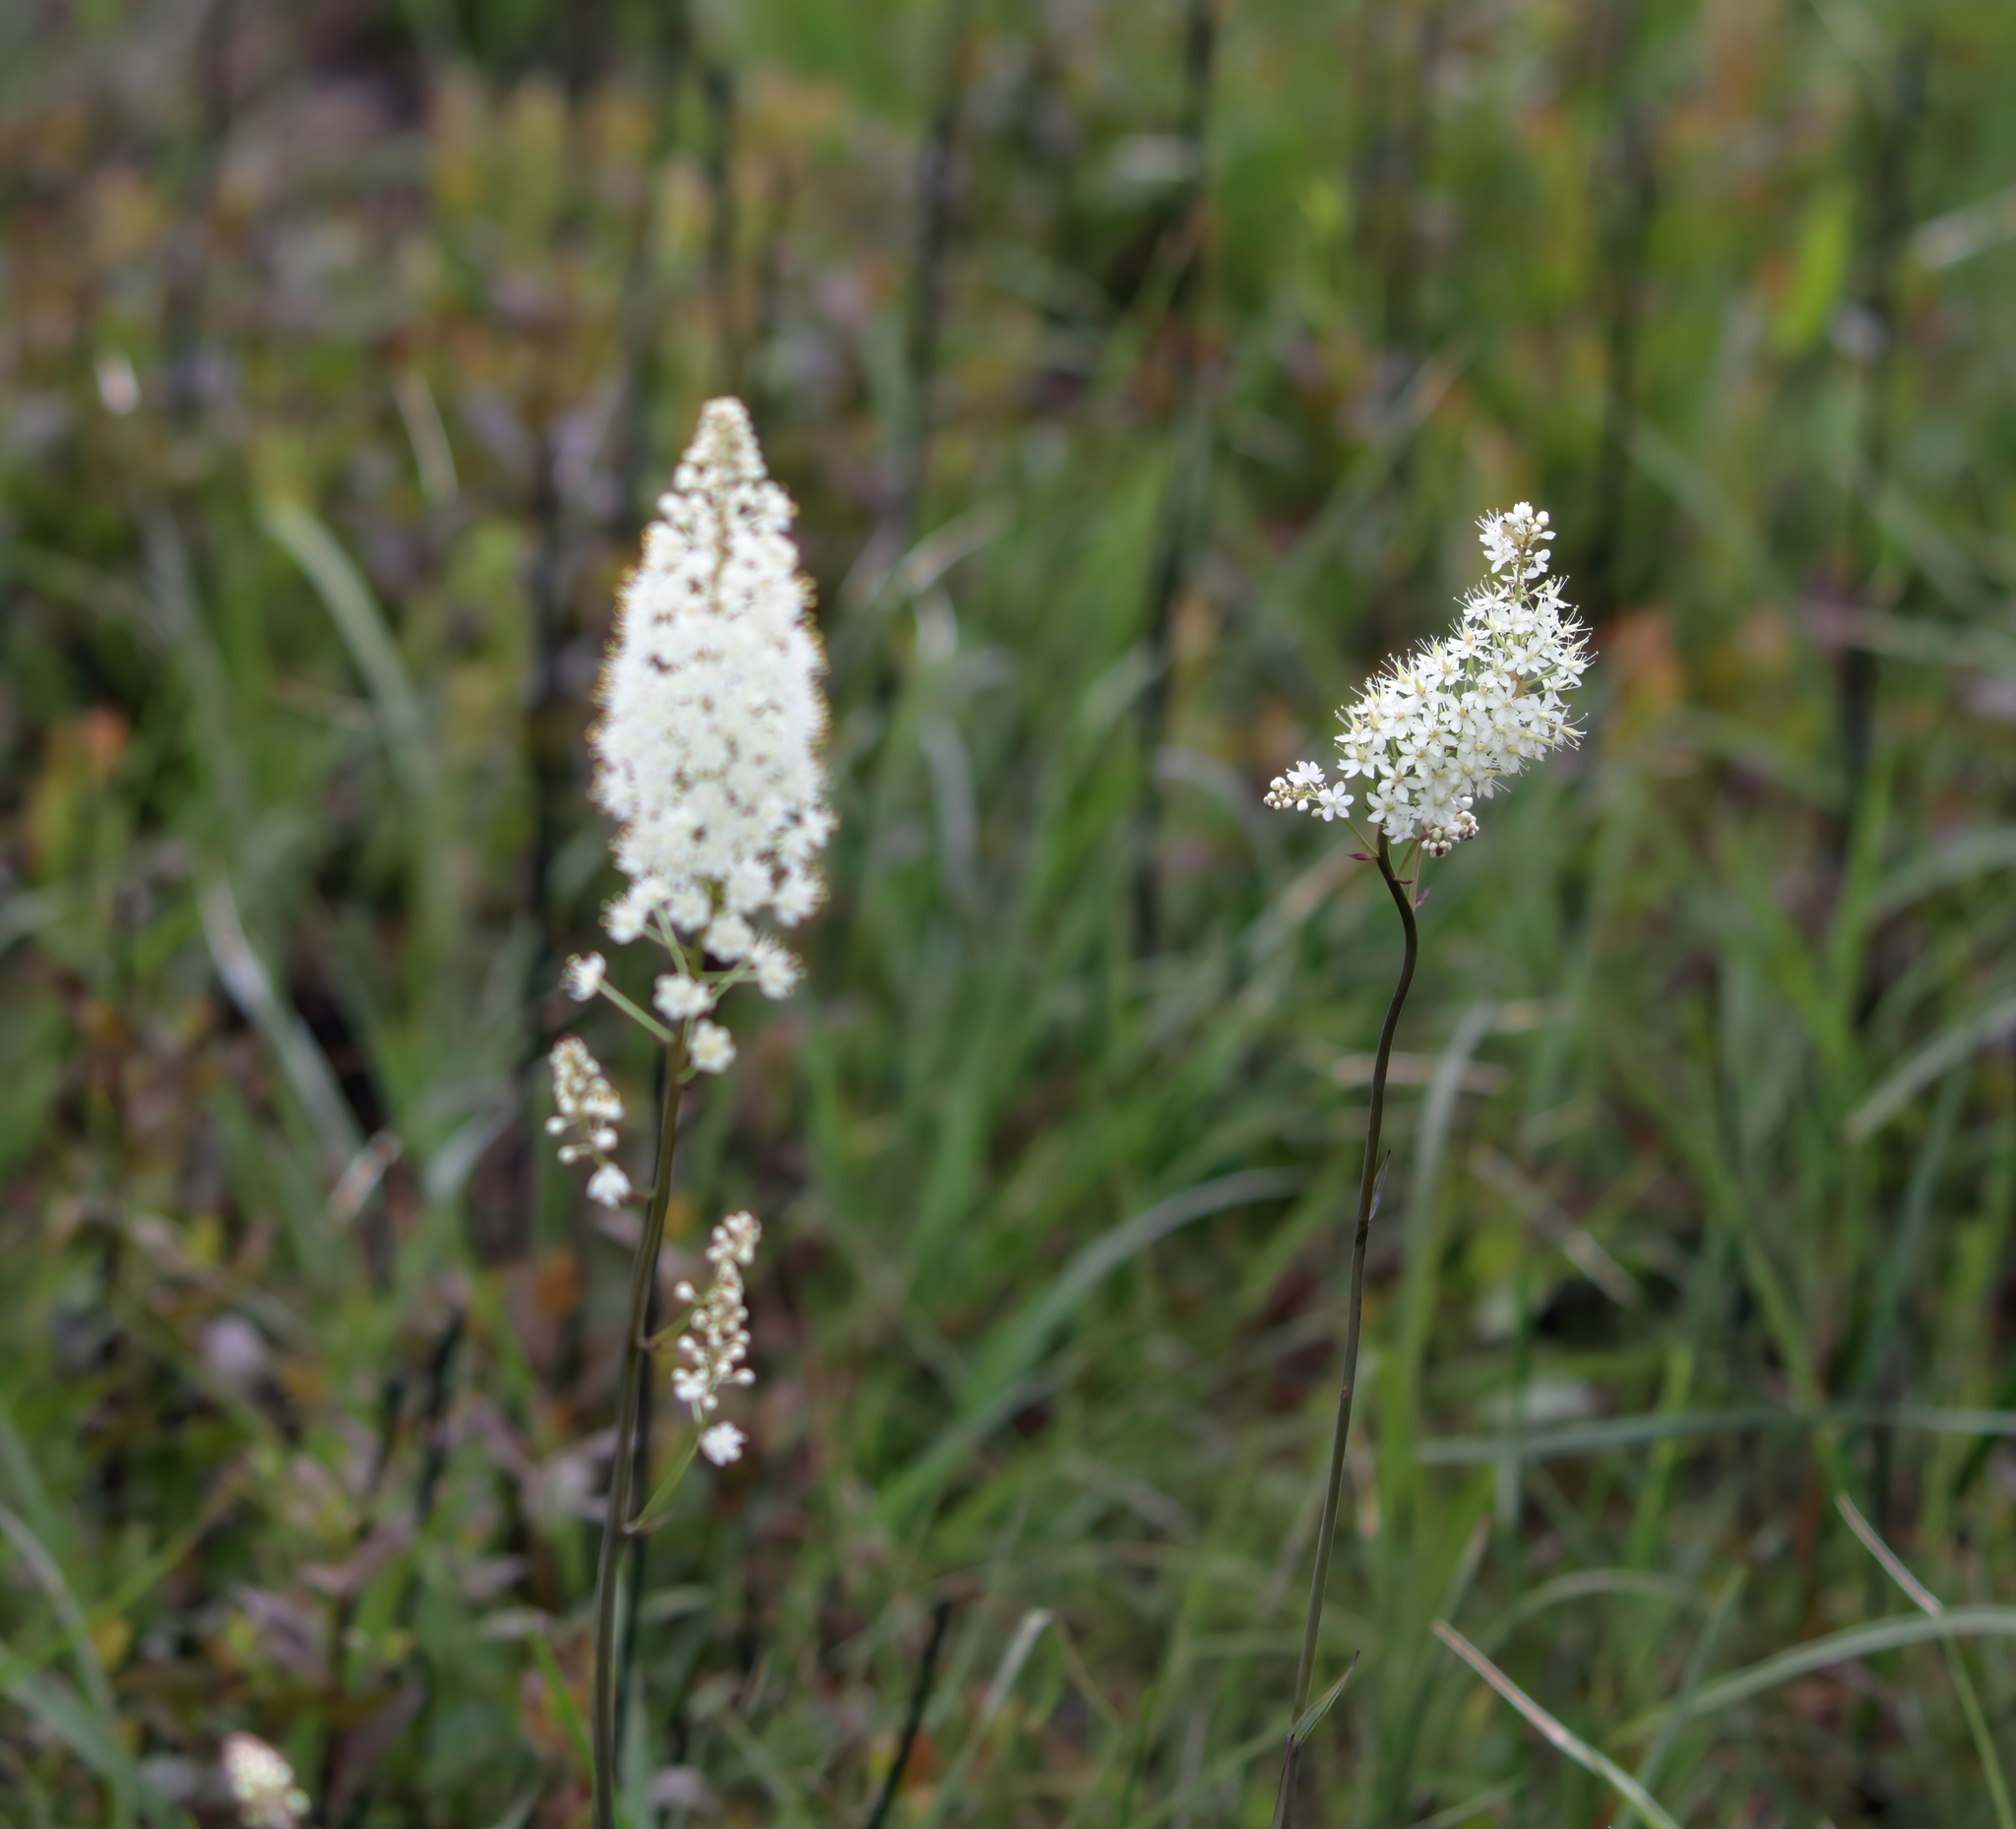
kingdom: Plantae
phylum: Tracheophyta
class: Liliopsida
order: Liliales
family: Melanthiaceae
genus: Stenanthium
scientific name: Stenanthium texanum
